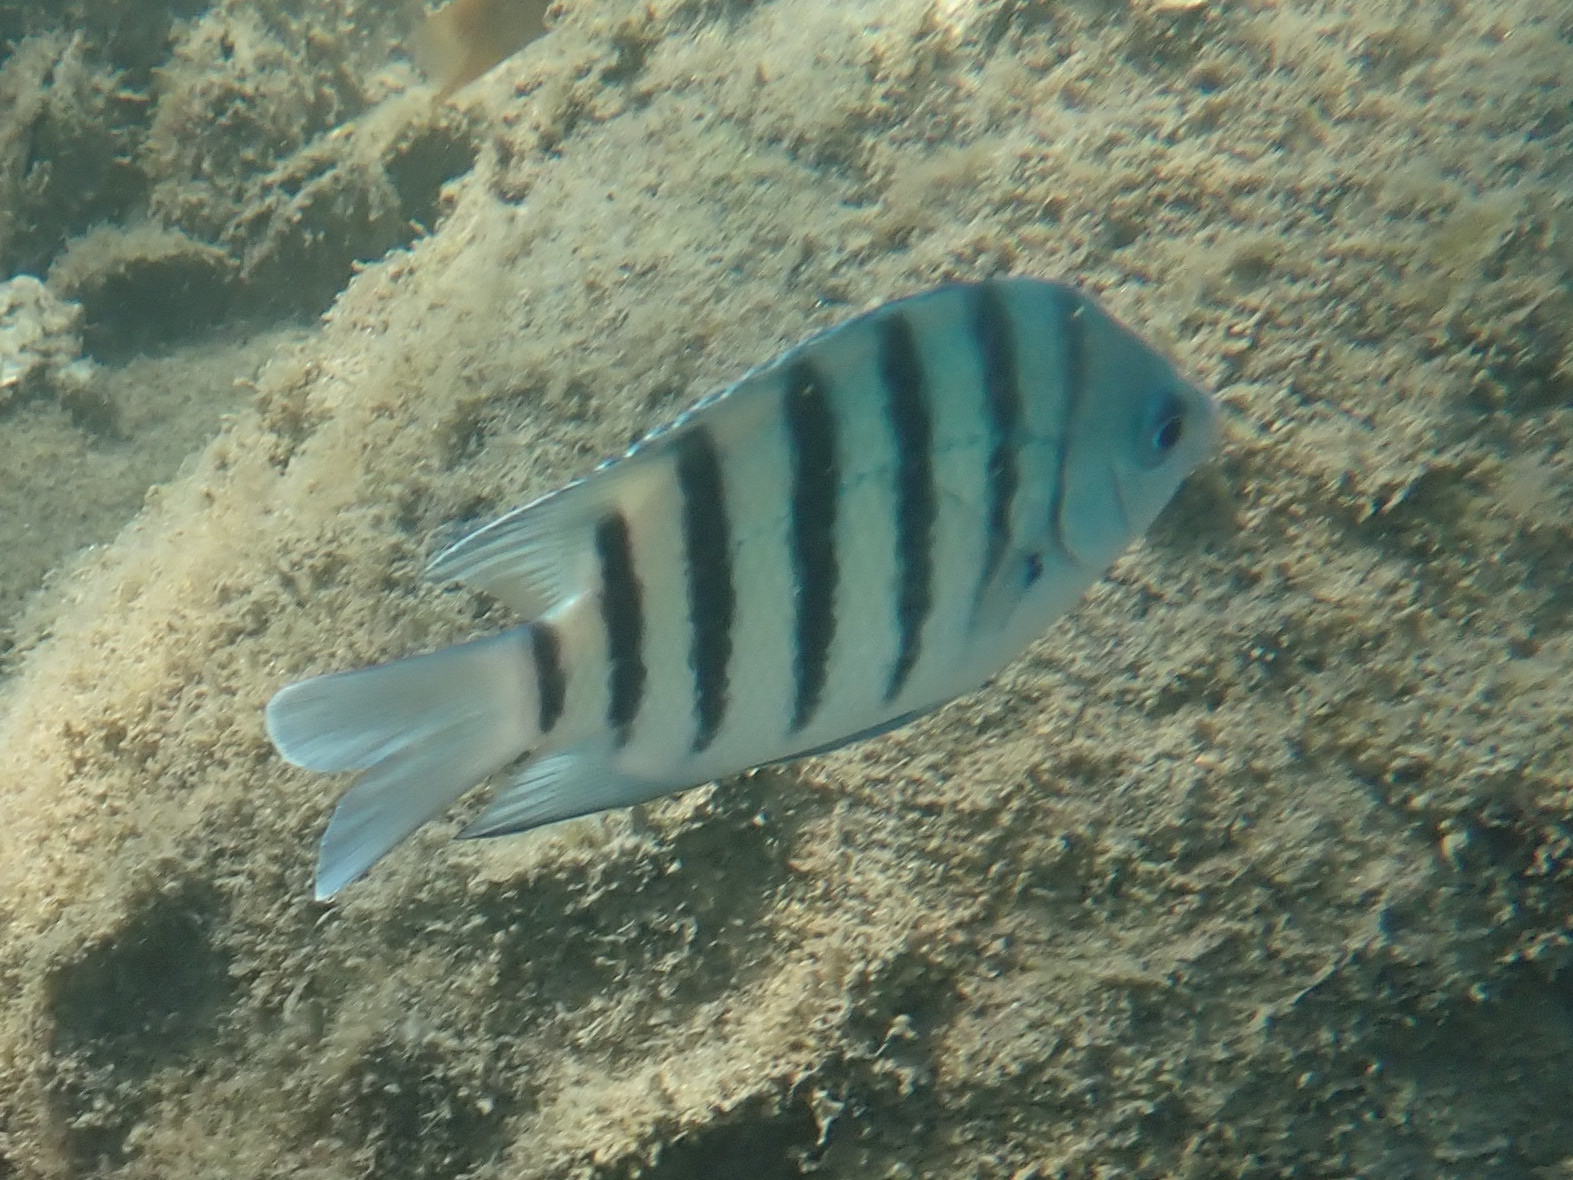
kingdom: Animalia
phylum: Chordata
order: Perciformes
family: Pomacentridae
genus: Abudefduf
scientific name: Abudefduf bengalensis
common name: Bengal sergeant
